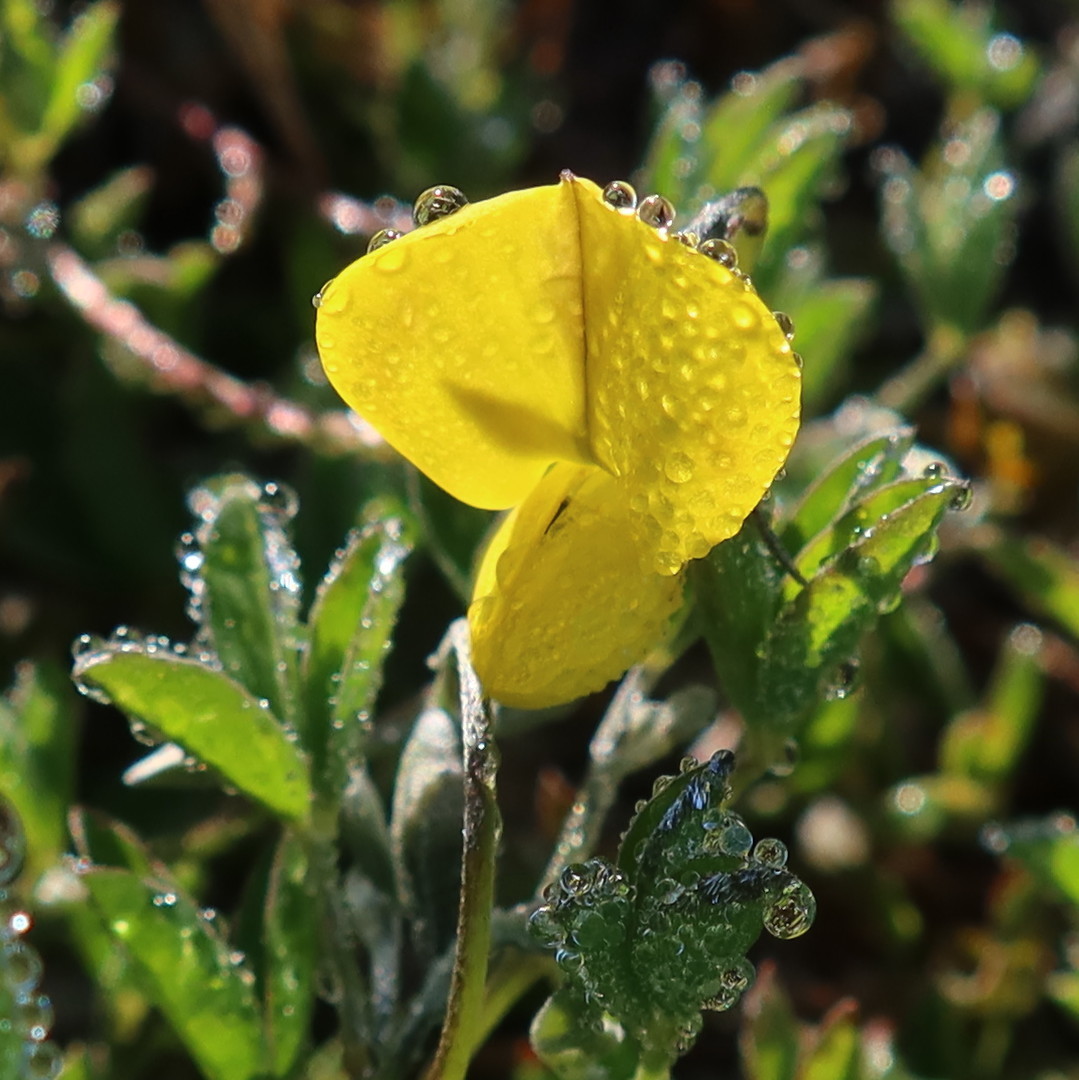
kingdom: Plantae
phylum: Tracheophyta
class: Magnoliopsida
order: Fabales
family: Fabaceae
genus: Crotalaria
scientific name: Crotalaria excisa
